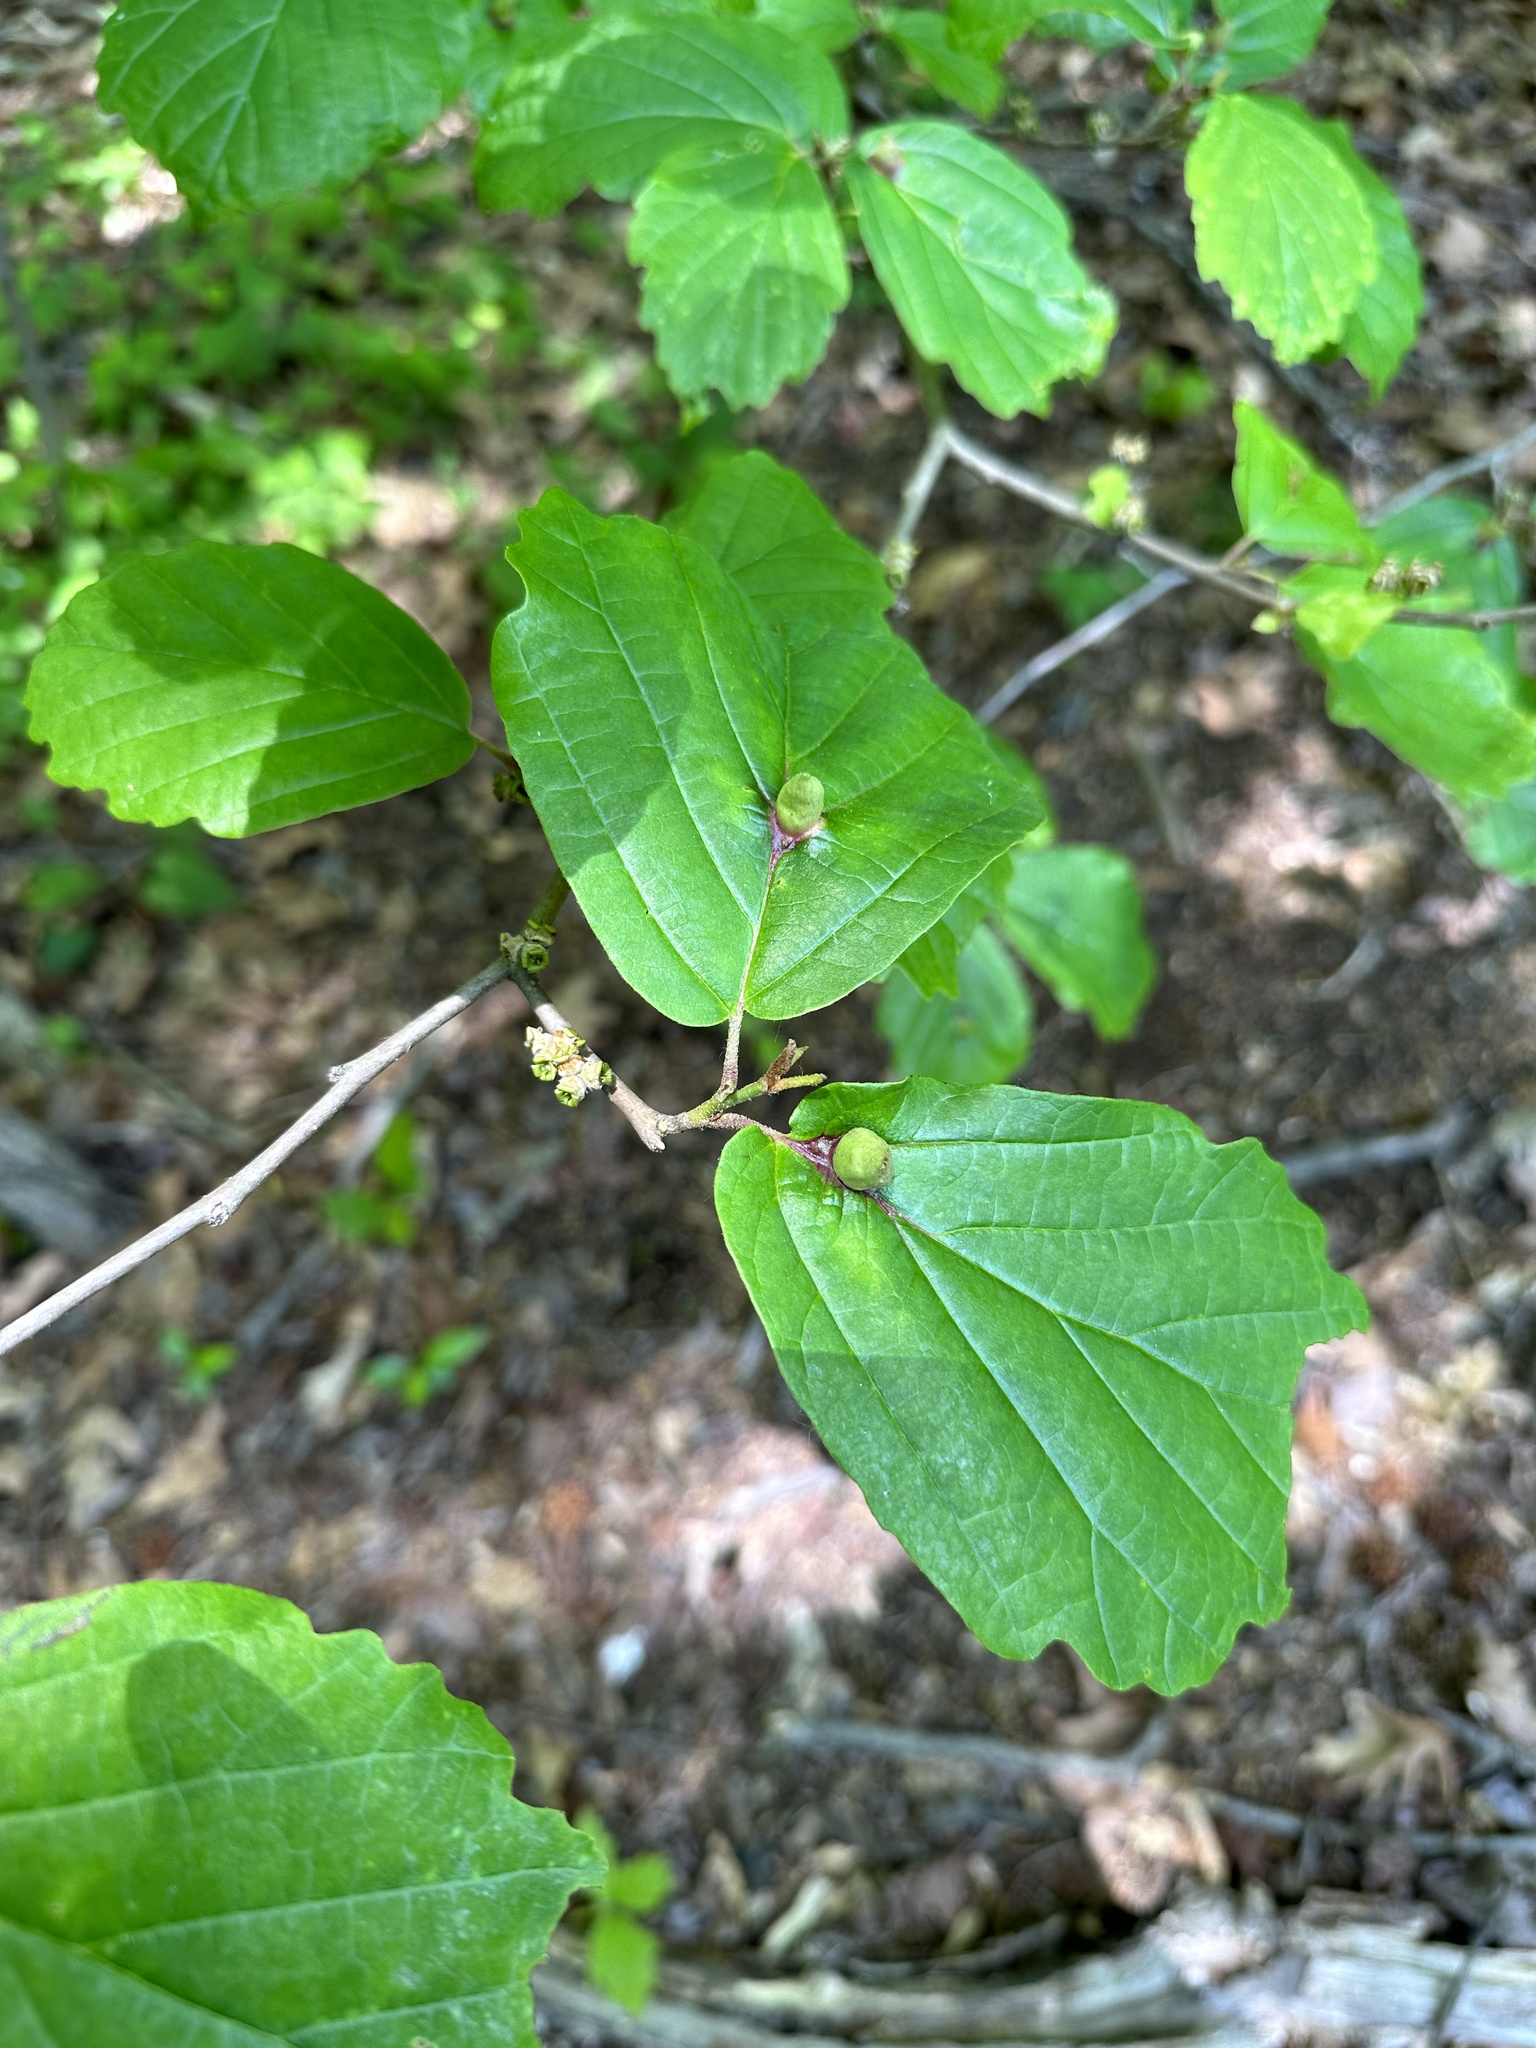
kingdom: Animalia
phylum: Arthropoda
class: Insecta
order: Hemiptera
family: Aphididae
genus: Hormaphis
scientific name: Hormaphis hamamelidis
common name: Witch-hazel cone gall aphid
